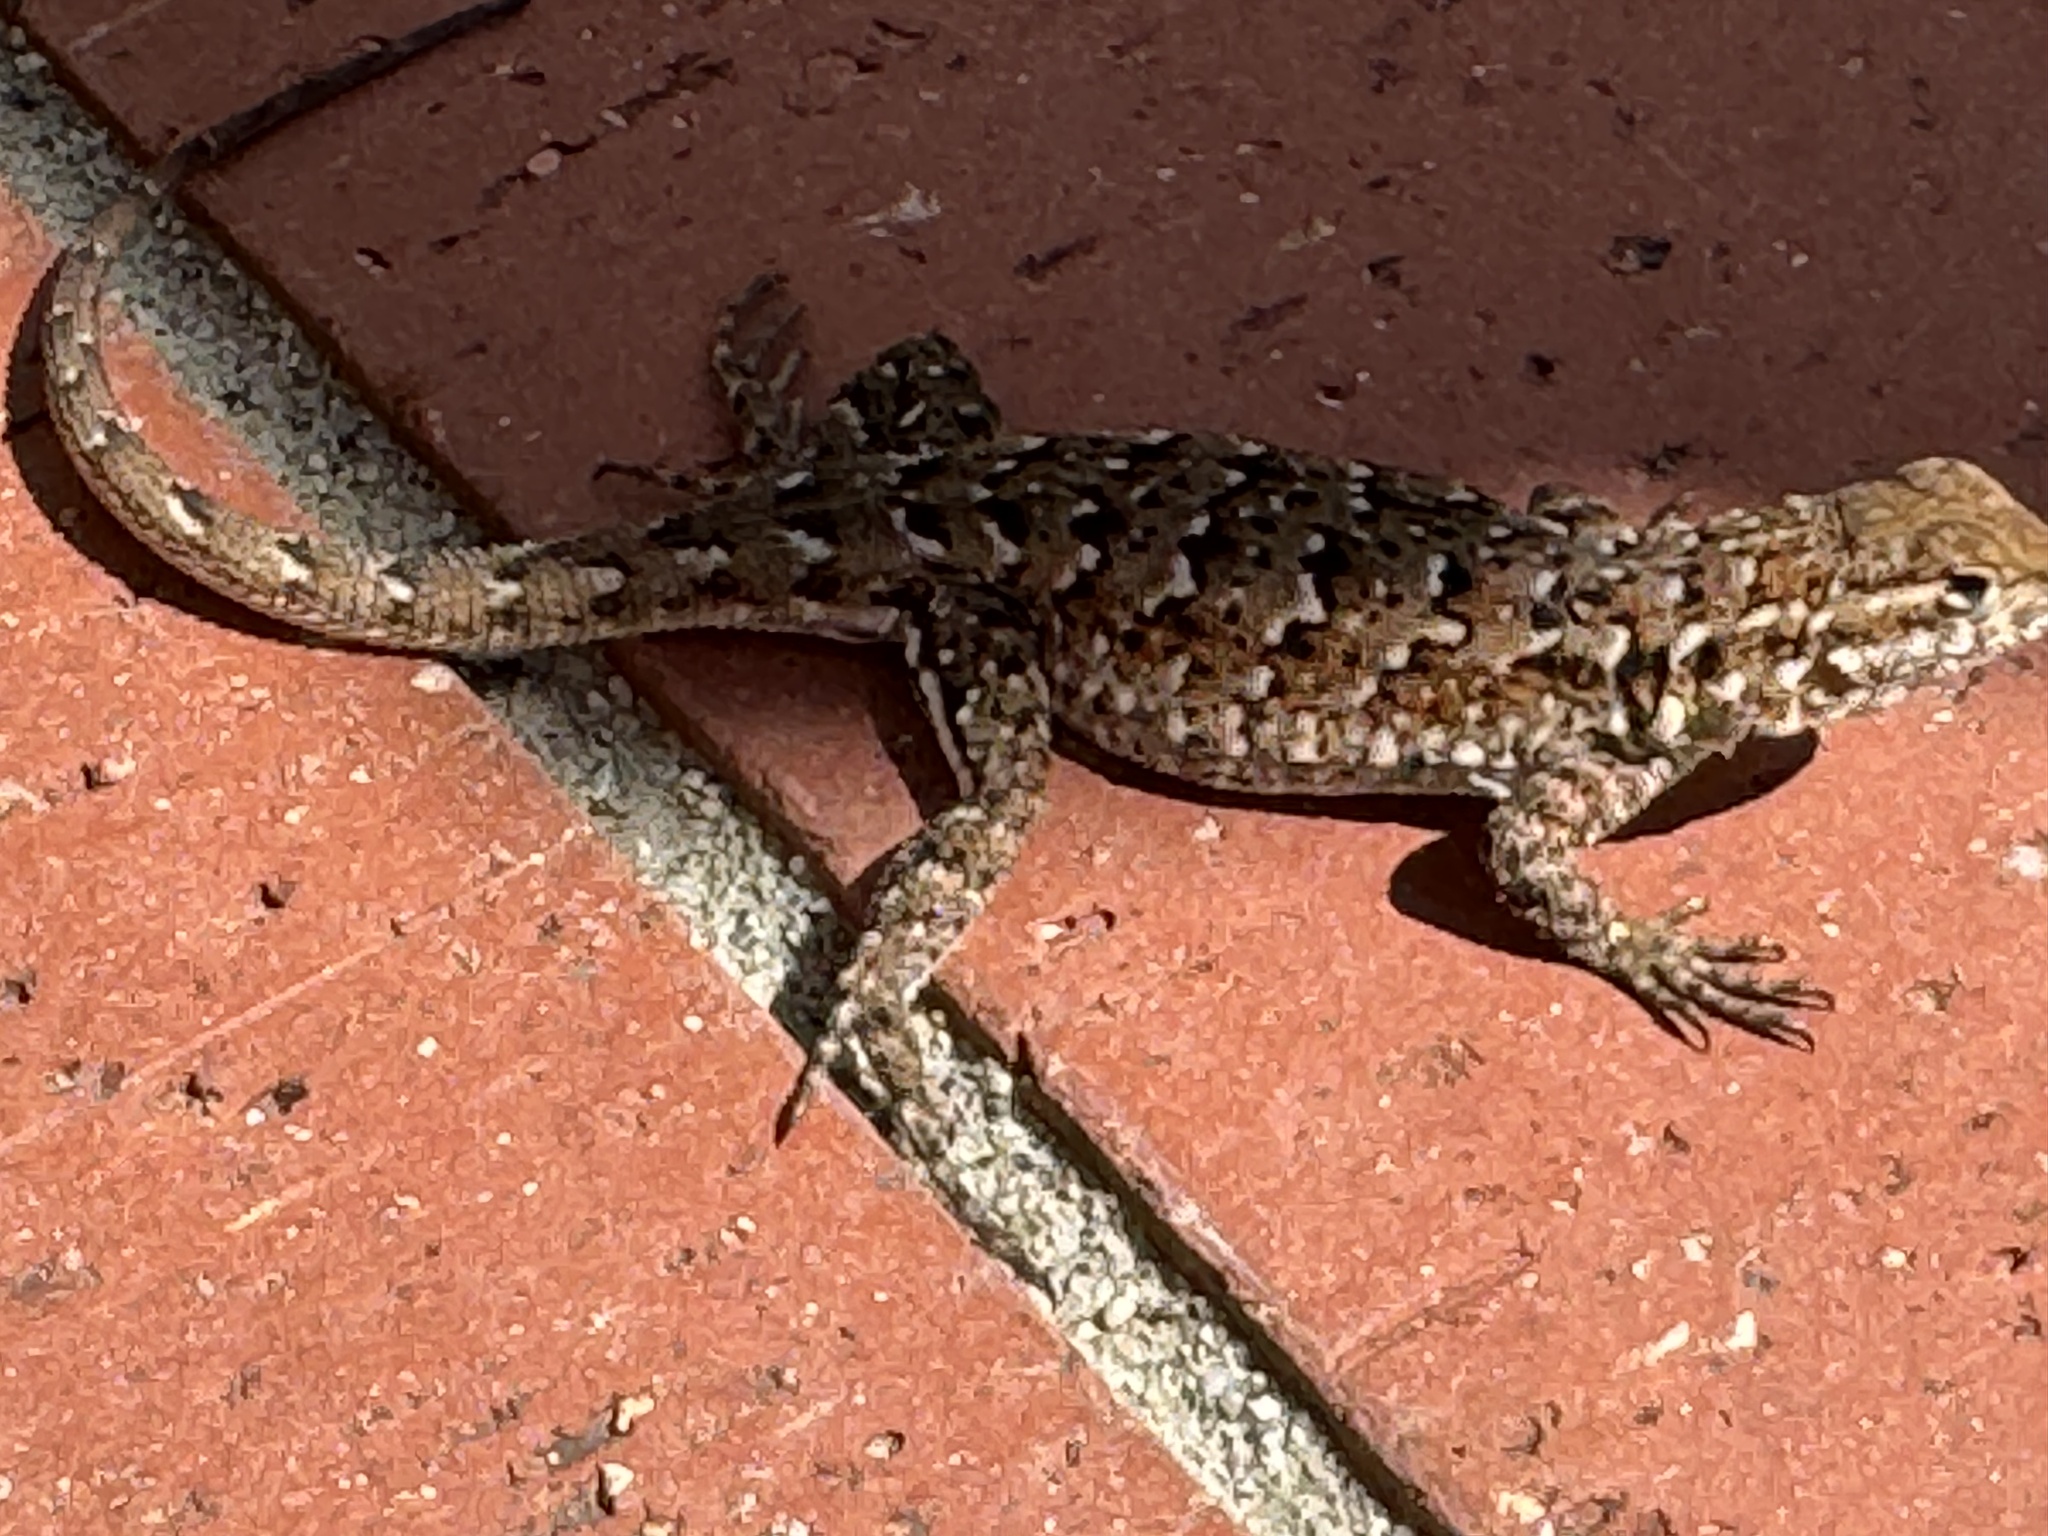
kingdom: Animalia
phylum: Chordata
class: Squamata
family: Phrynosomatidae
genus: Uta
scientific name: Uta stansburiana
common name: Side-blotched lizard
